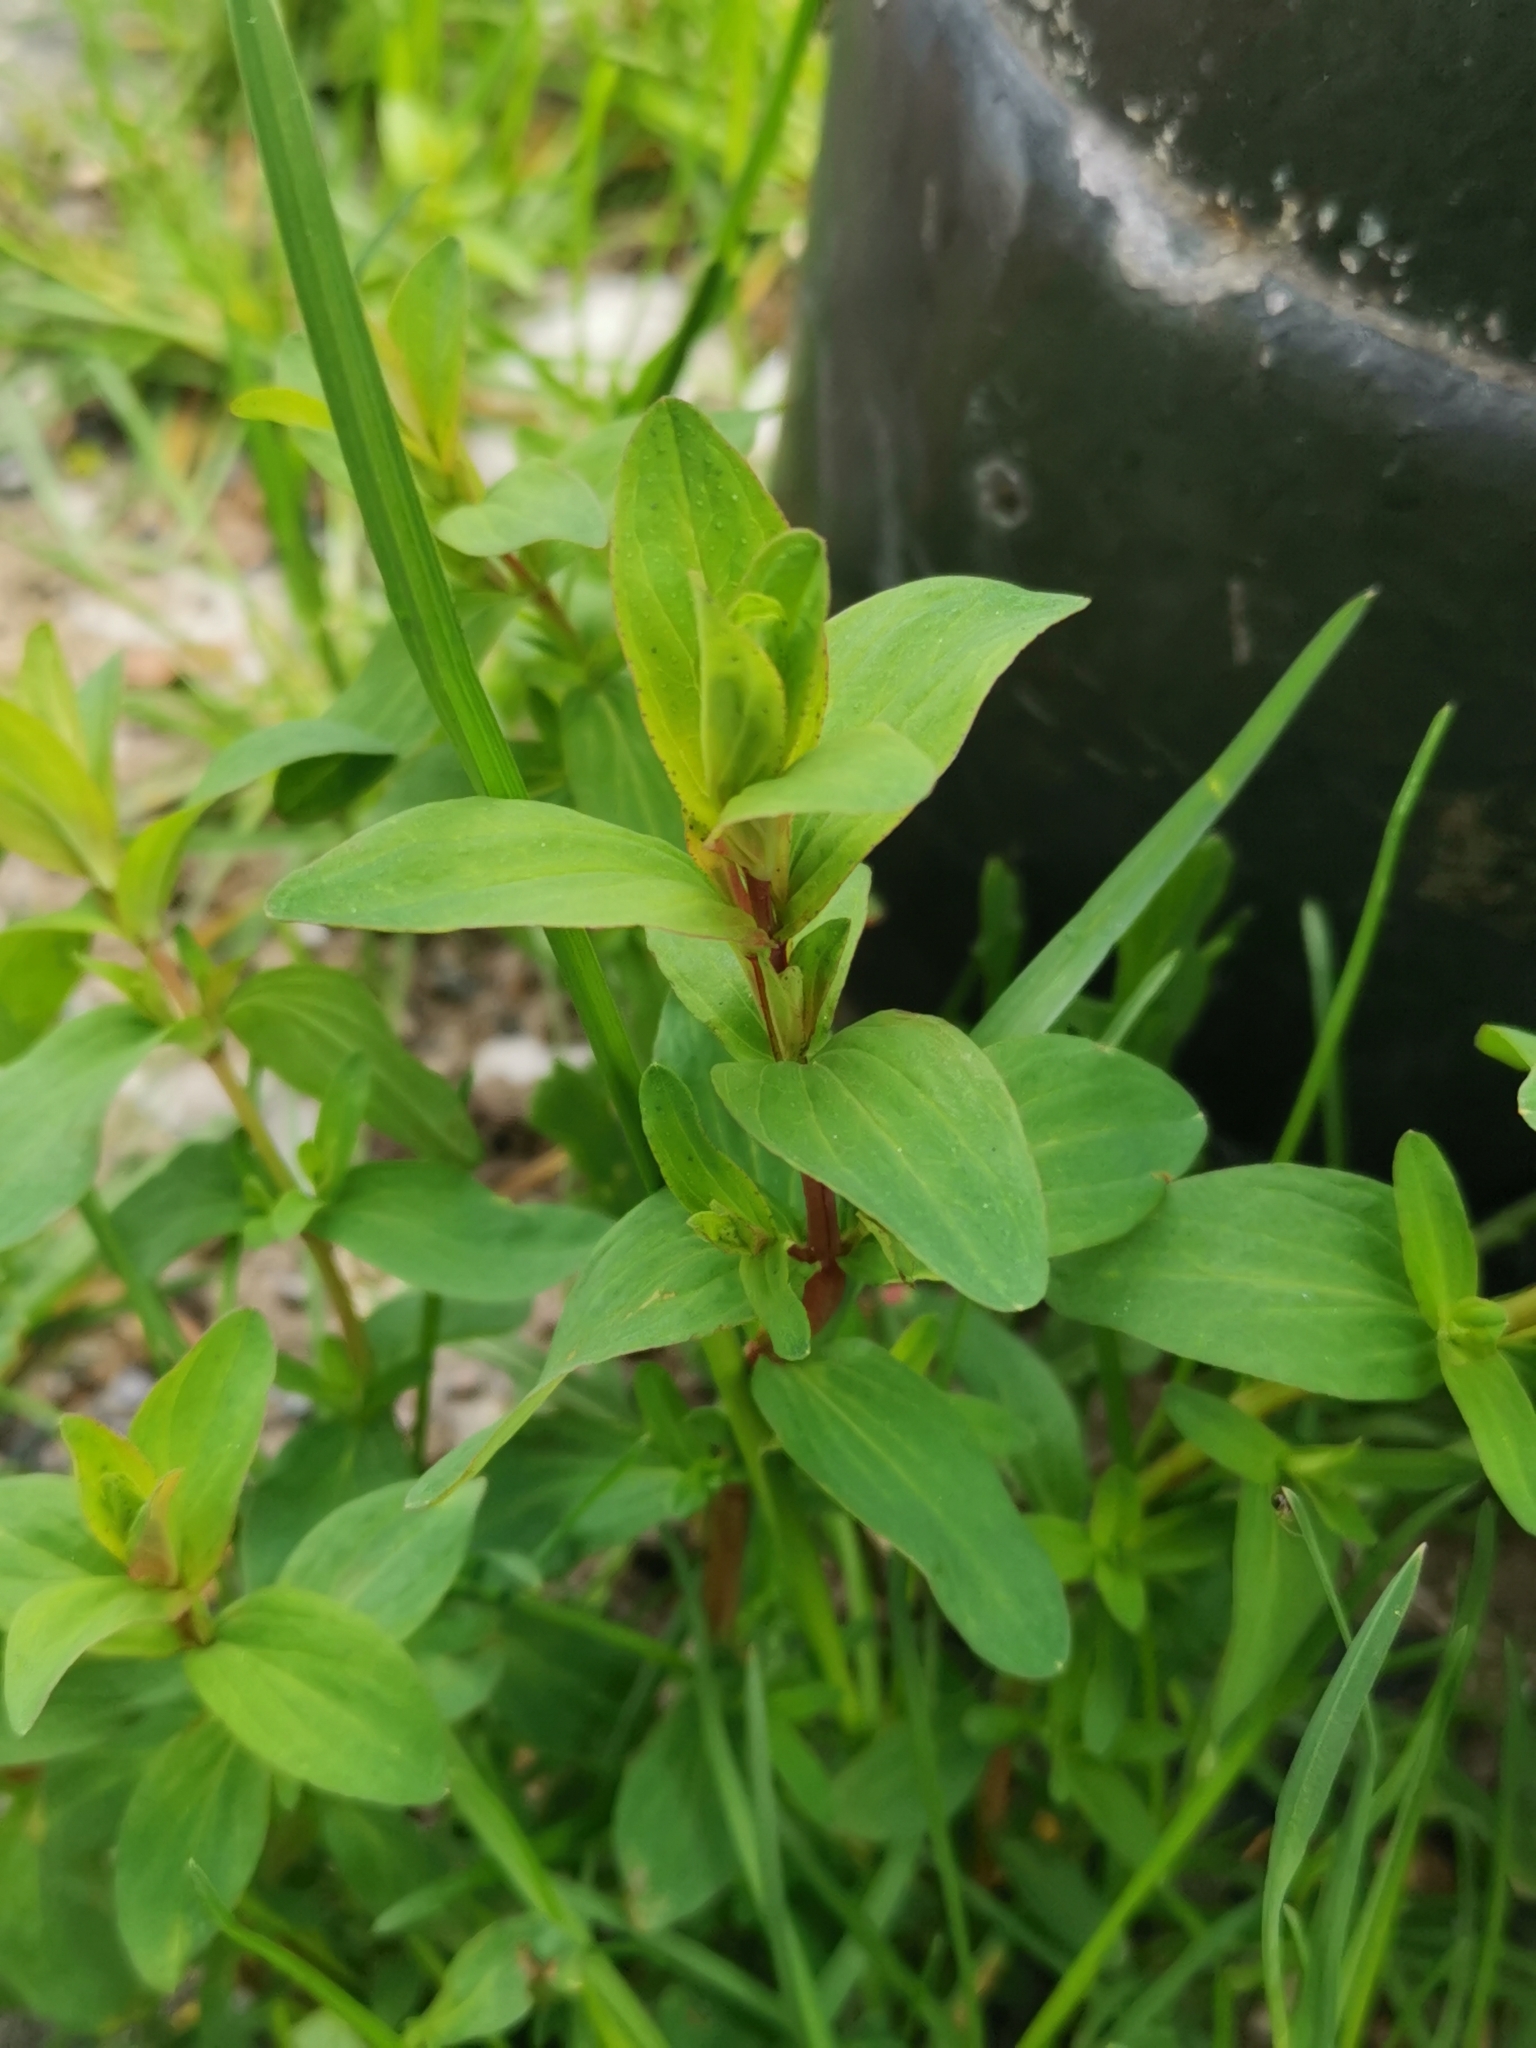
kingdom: Plantae
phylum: Tracheophyta
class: Magnoliopsida
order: Malpighiales
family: Hypericaceae
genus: Hypericum
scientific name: Hypericum perforatum
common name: Common st. johnswort
